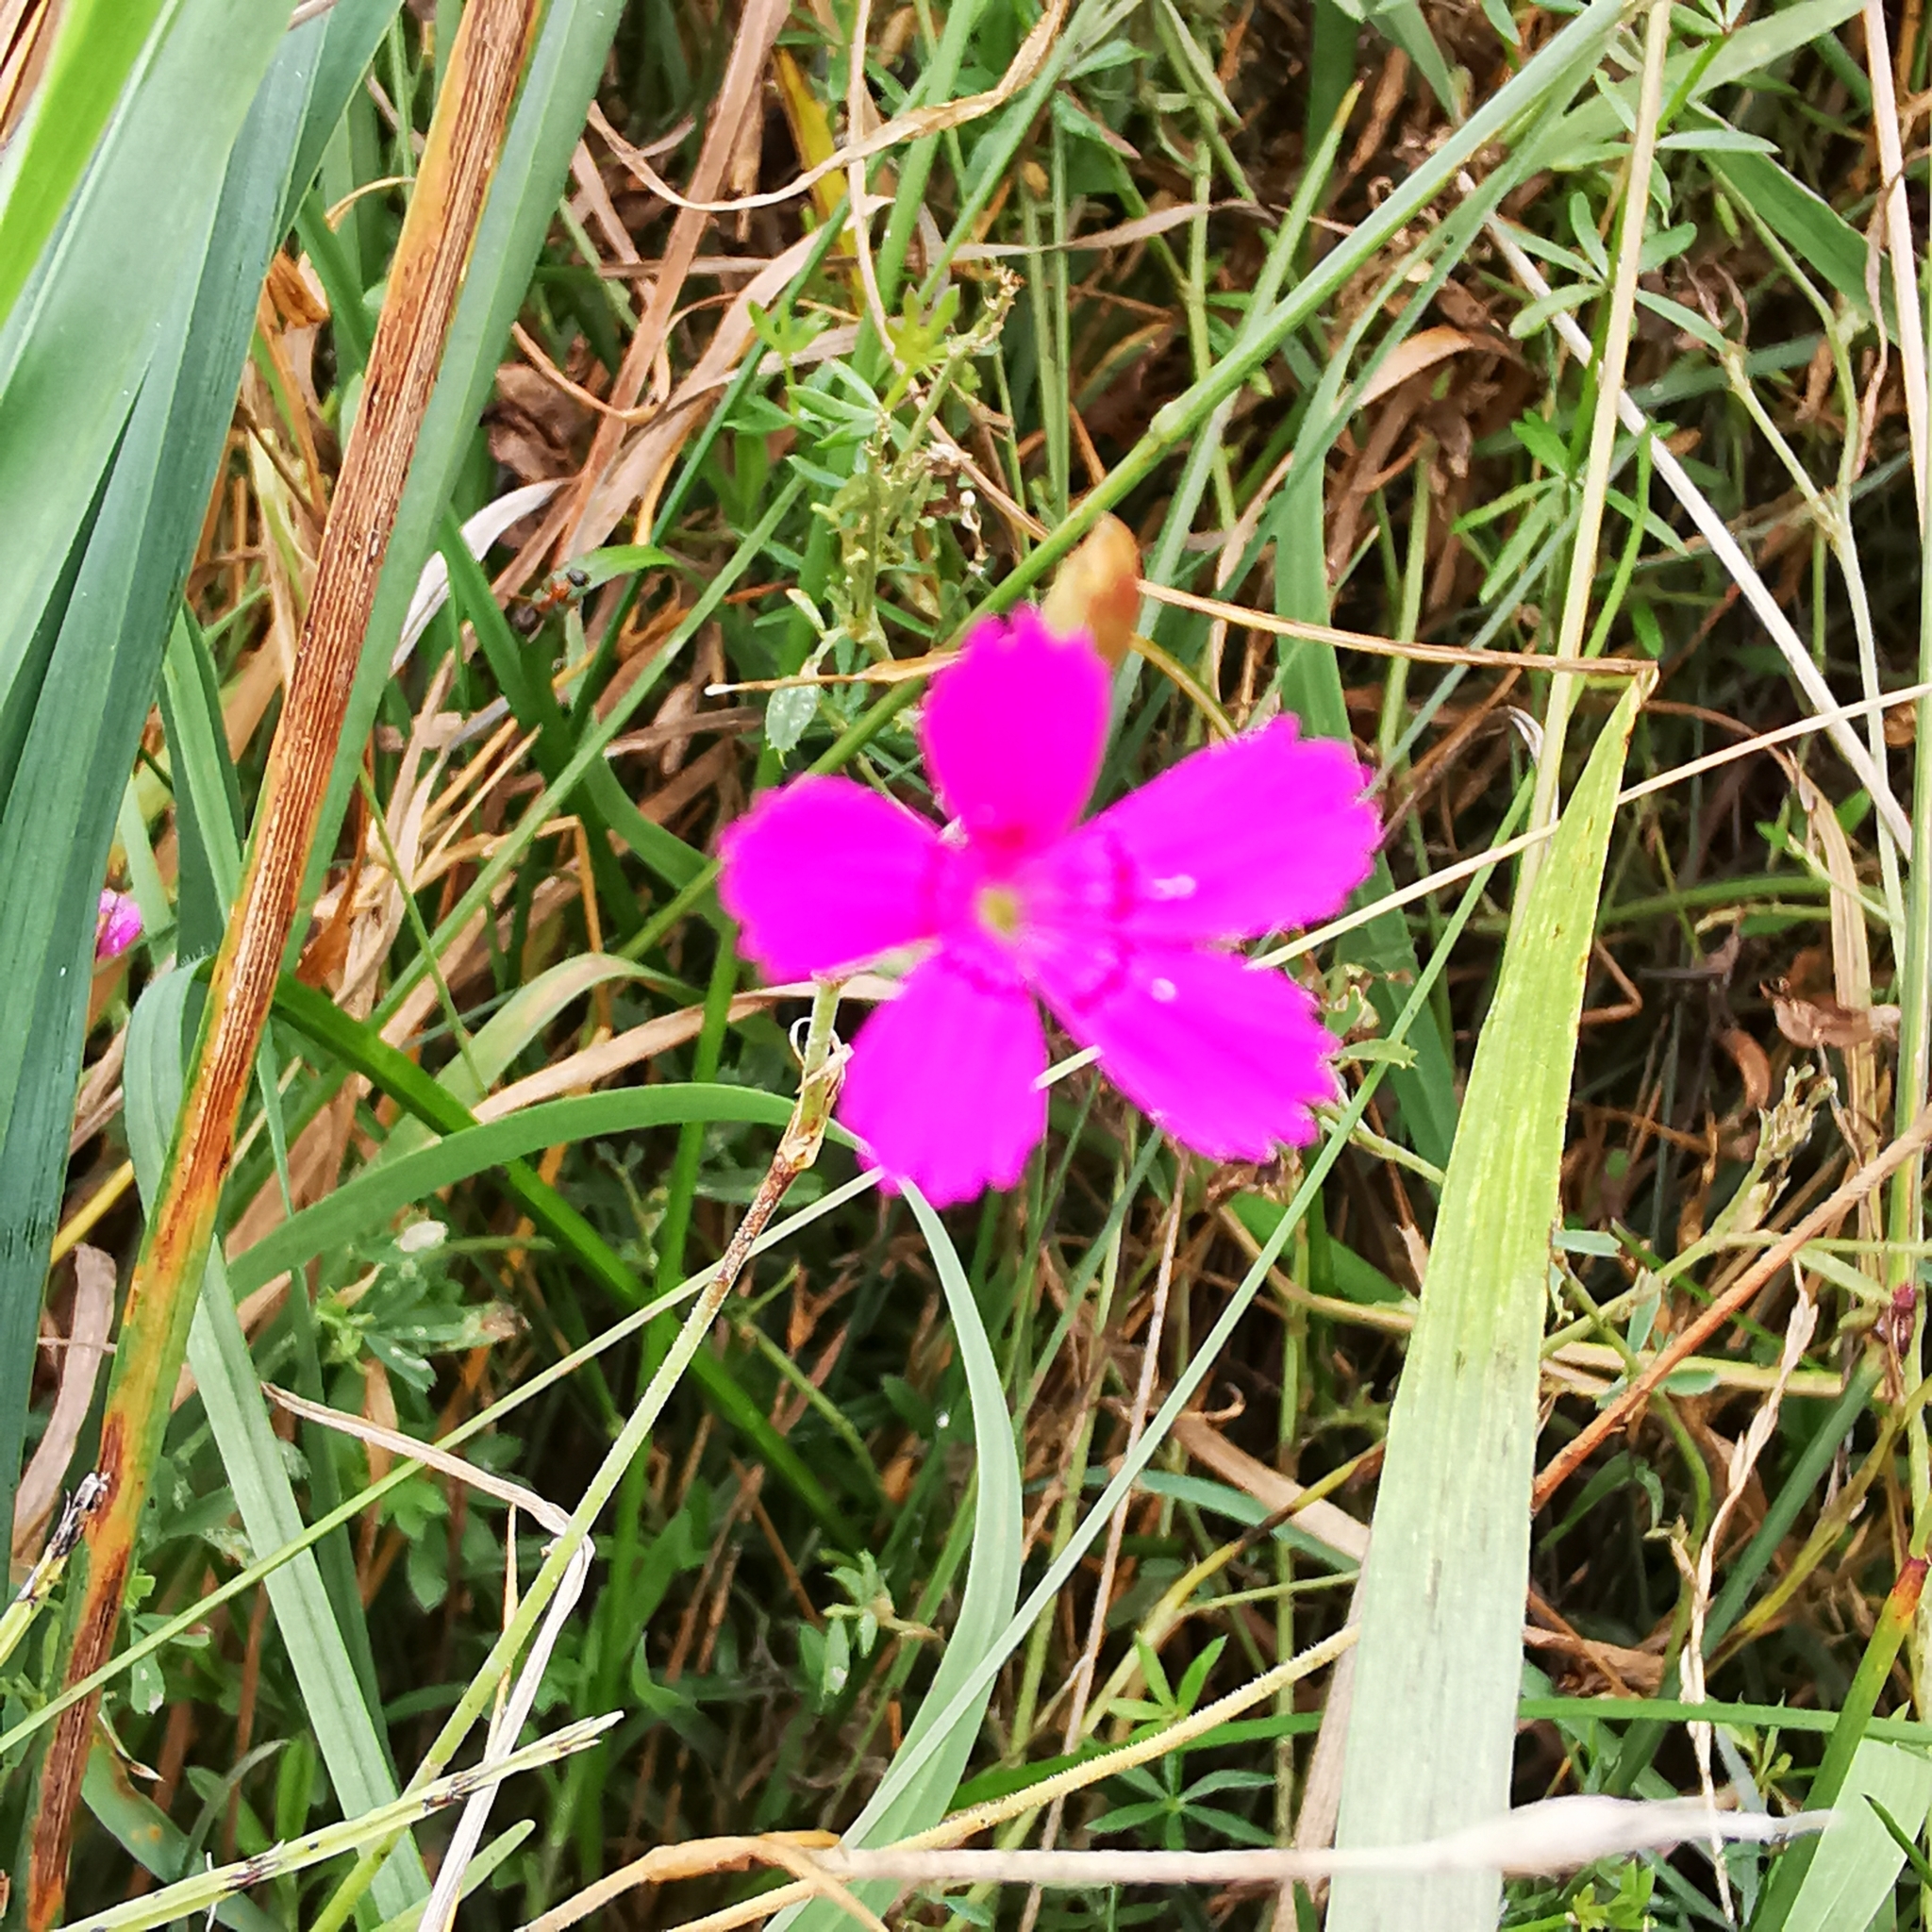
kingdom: Plantae
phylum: Tracheophyta
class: Magnoliopsida
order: Caryophyllales
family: Caryophyllaceae
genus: Dianthus
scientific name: Dianthus deltoides
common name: Maiden pink
